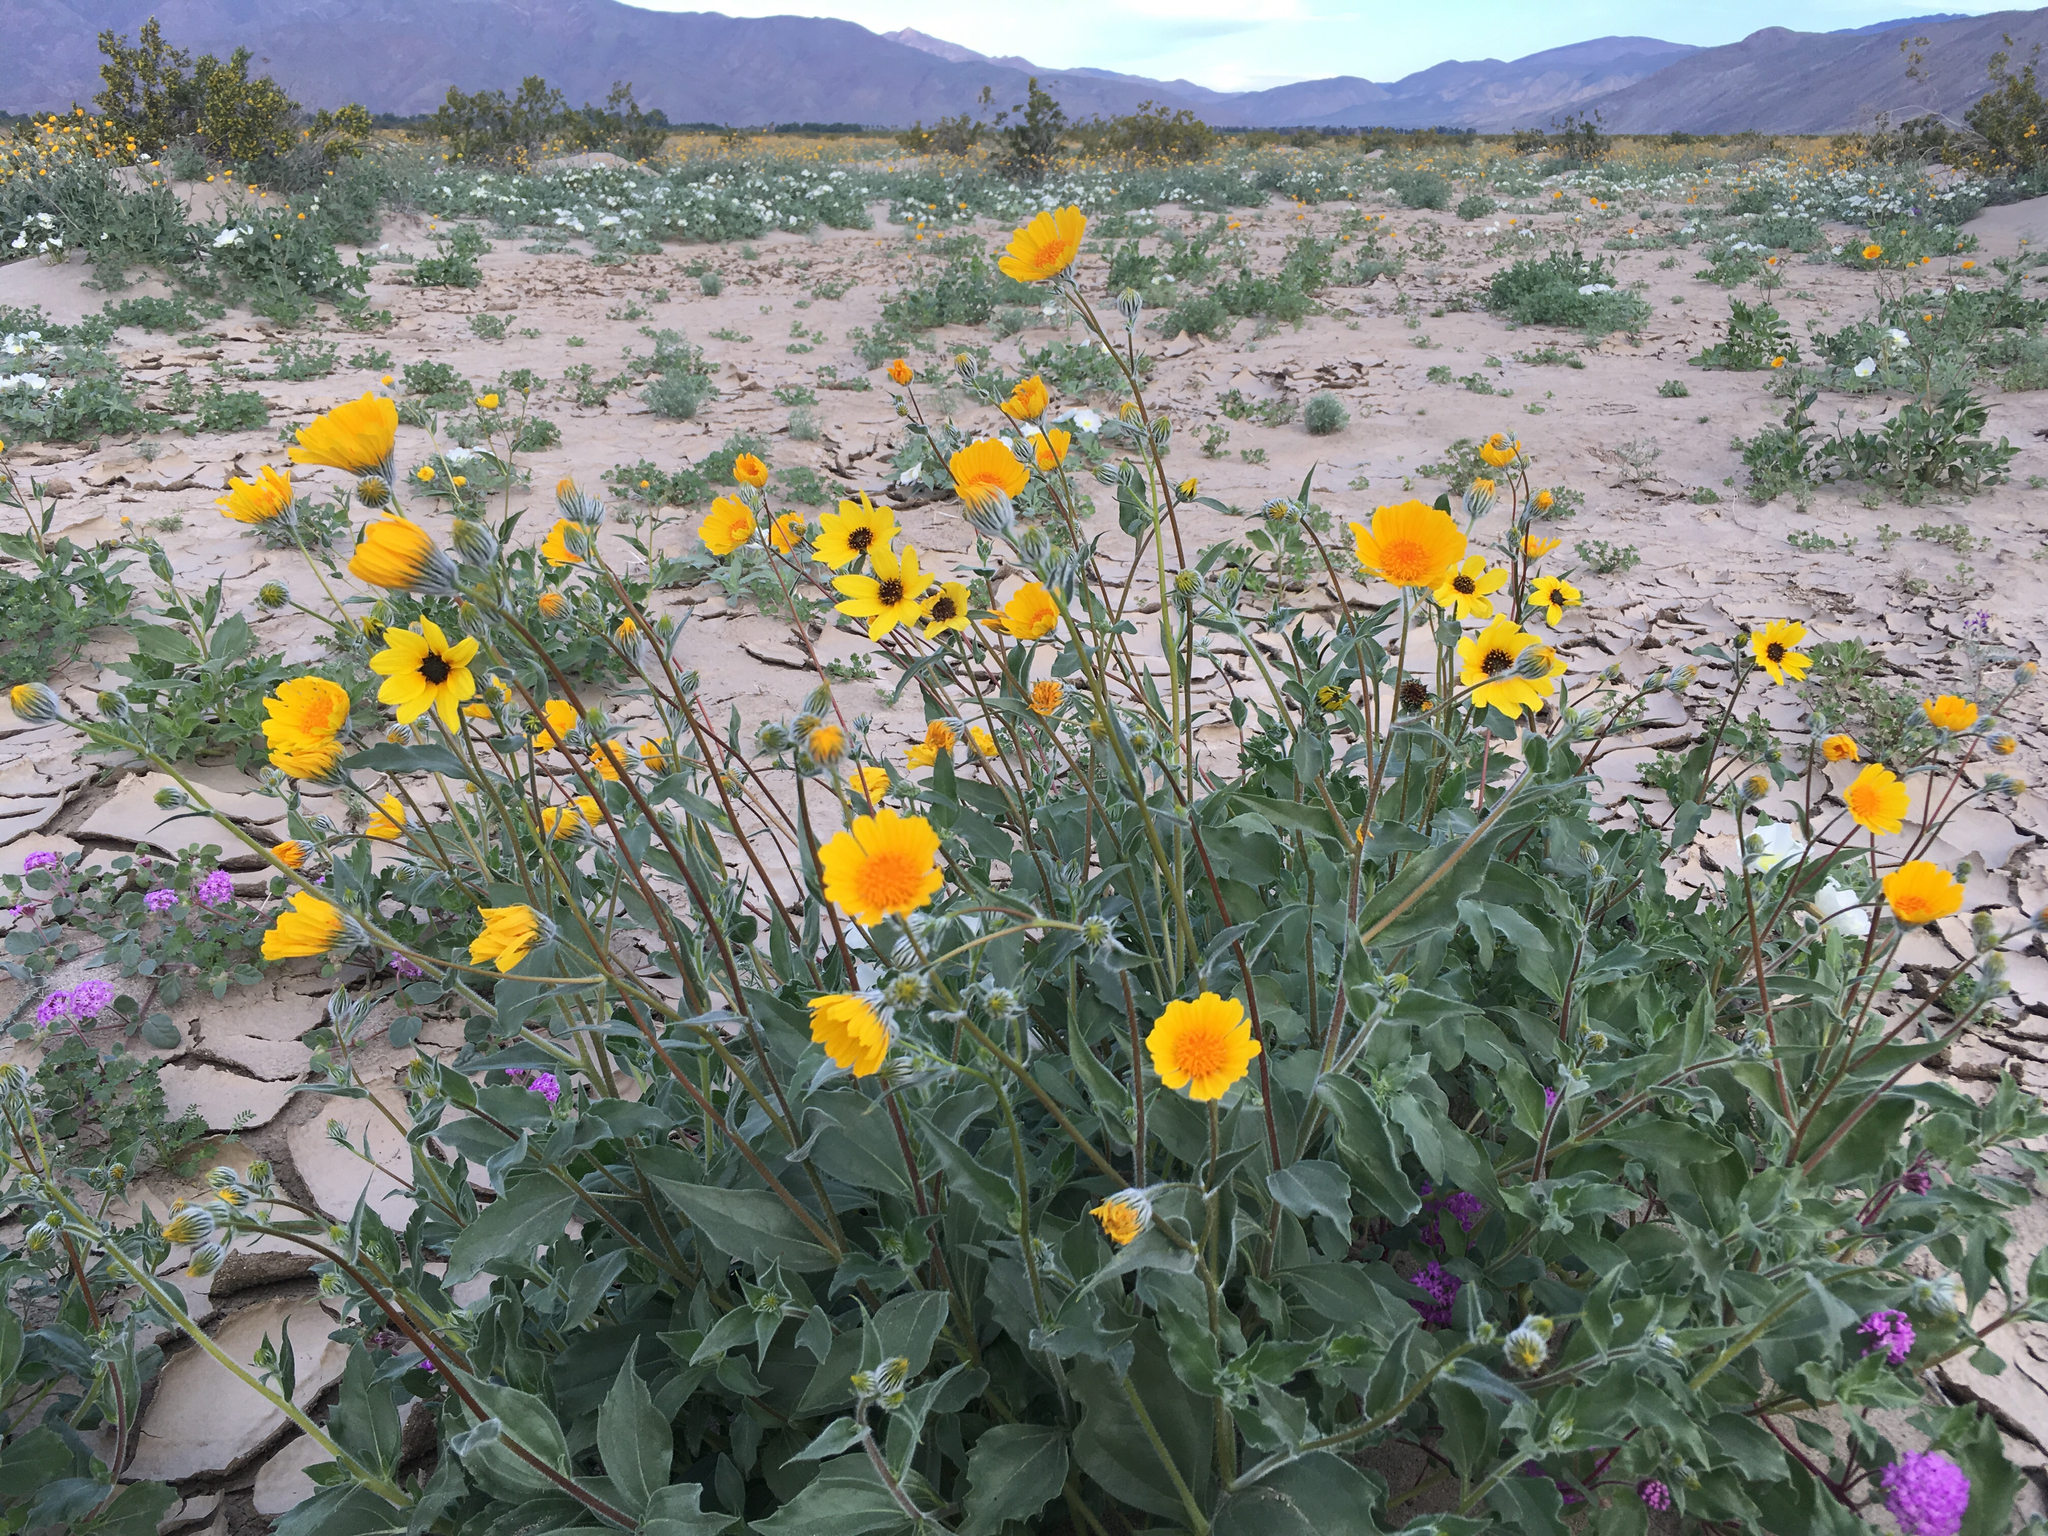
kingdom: Plantae
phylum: Tracheophyta
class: Magnoliopsida
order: Asterales
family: Asteraceae
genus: Helianthus
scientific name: Helianthus petiolaris
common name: Lesser sunflower
